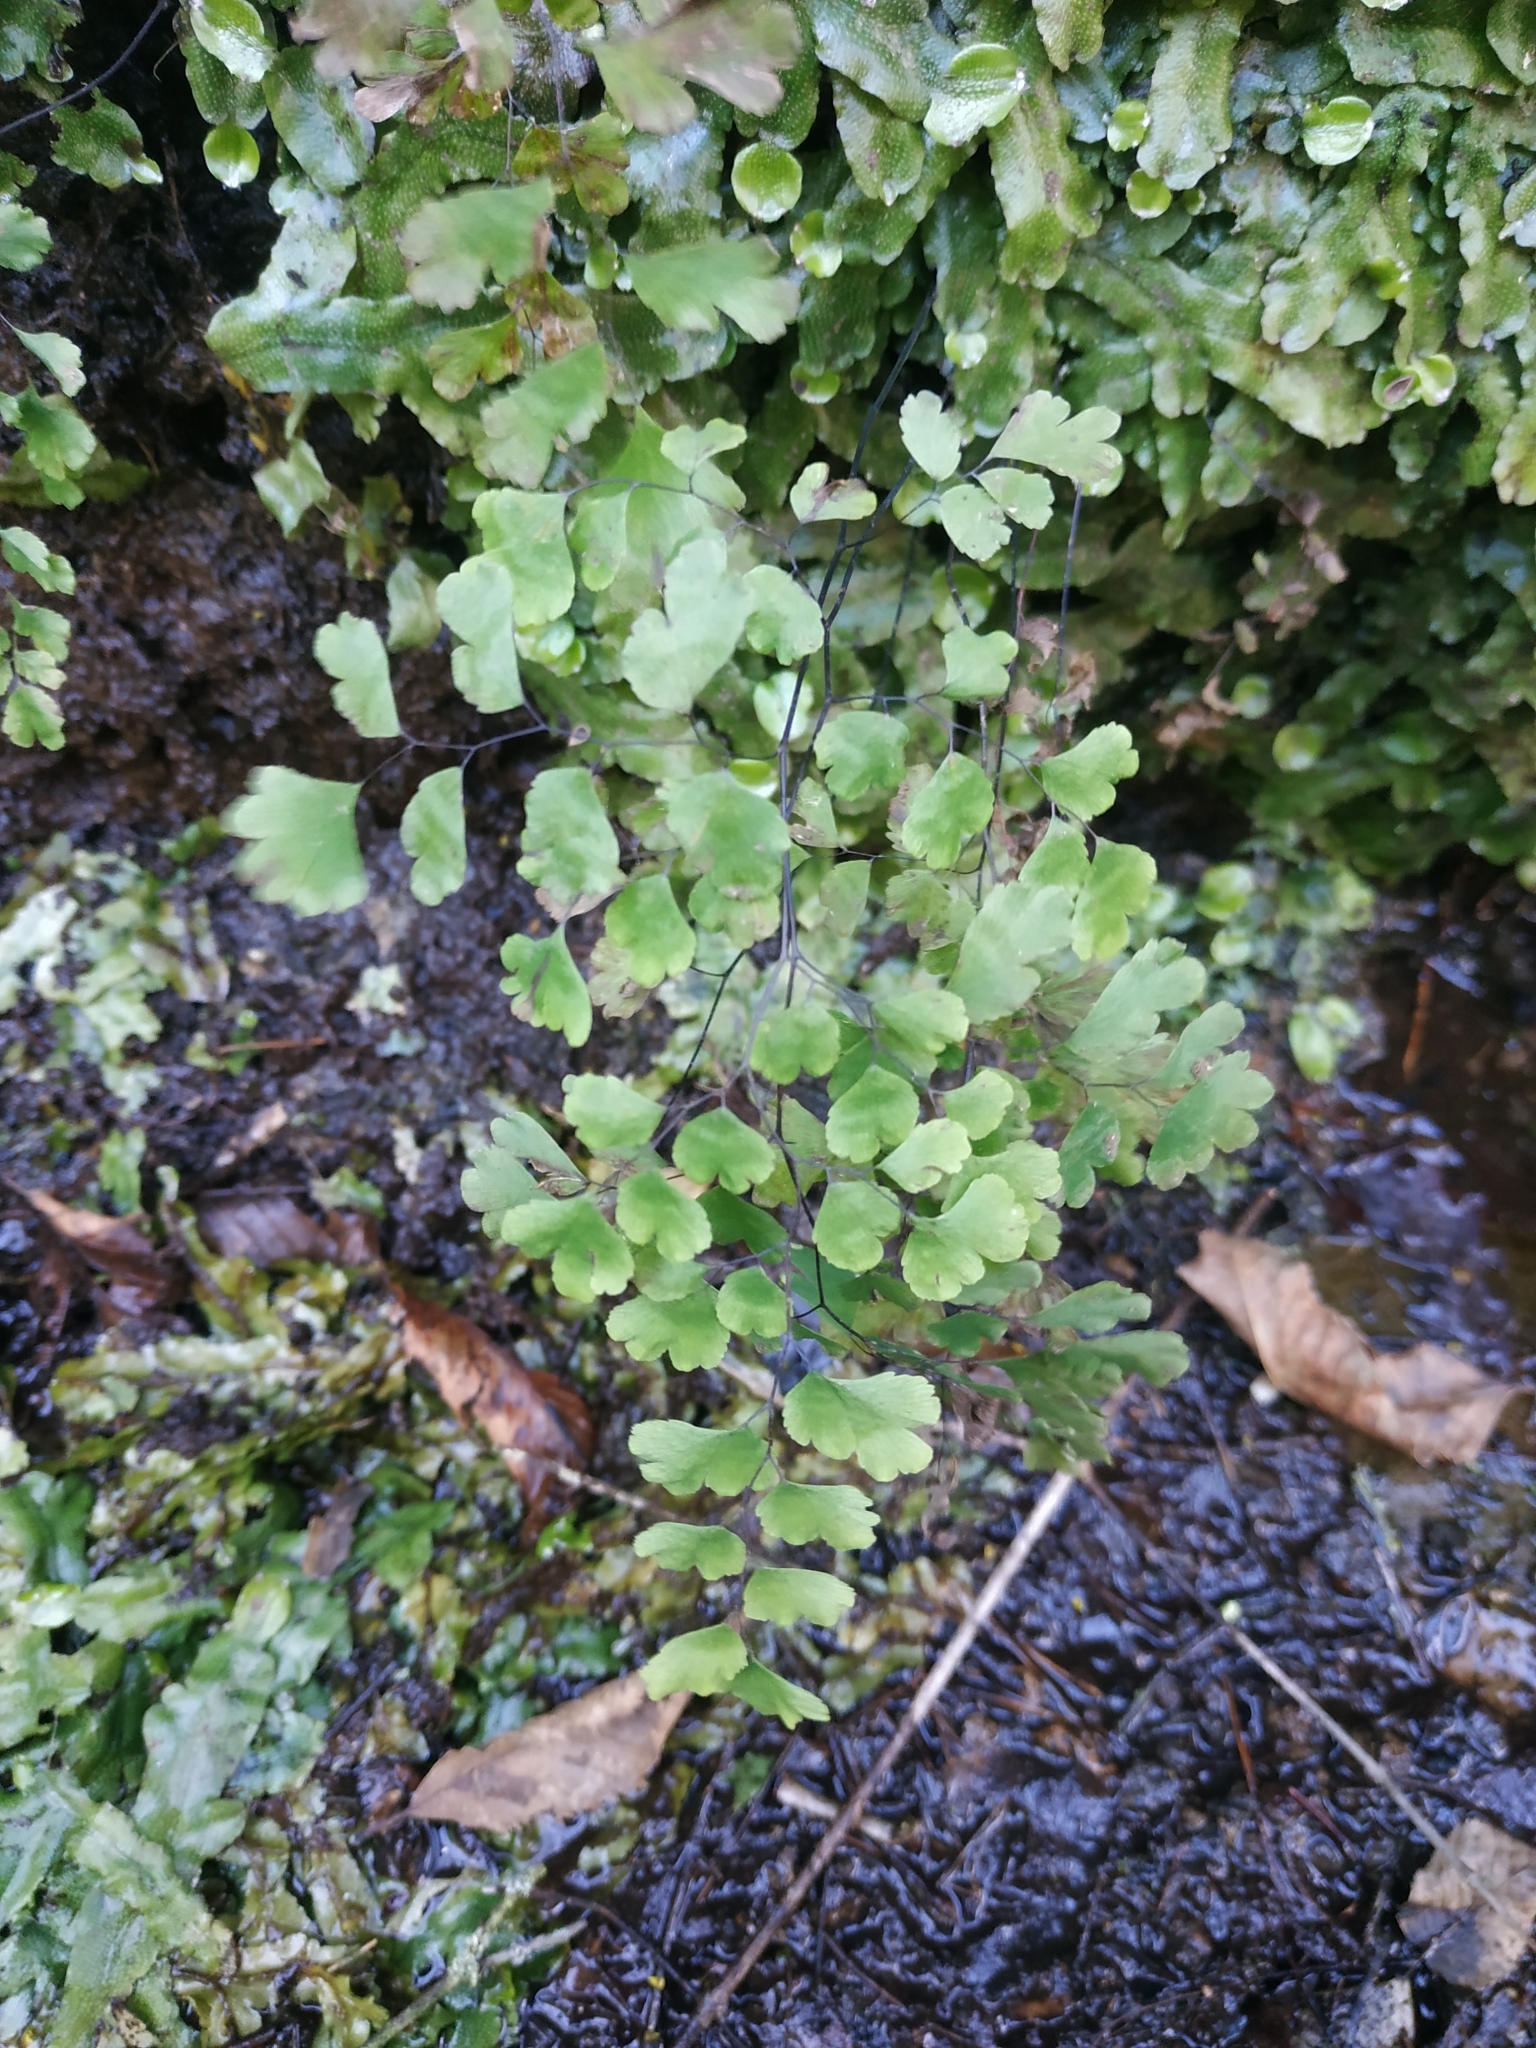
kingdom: Plantae
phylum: Tracheophyta
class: Polypodiopsida
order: Polypodiales
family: Pteridaceae
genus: Adiantum
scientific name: Adiantum capillus-veneris
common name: Maidenhair fern
